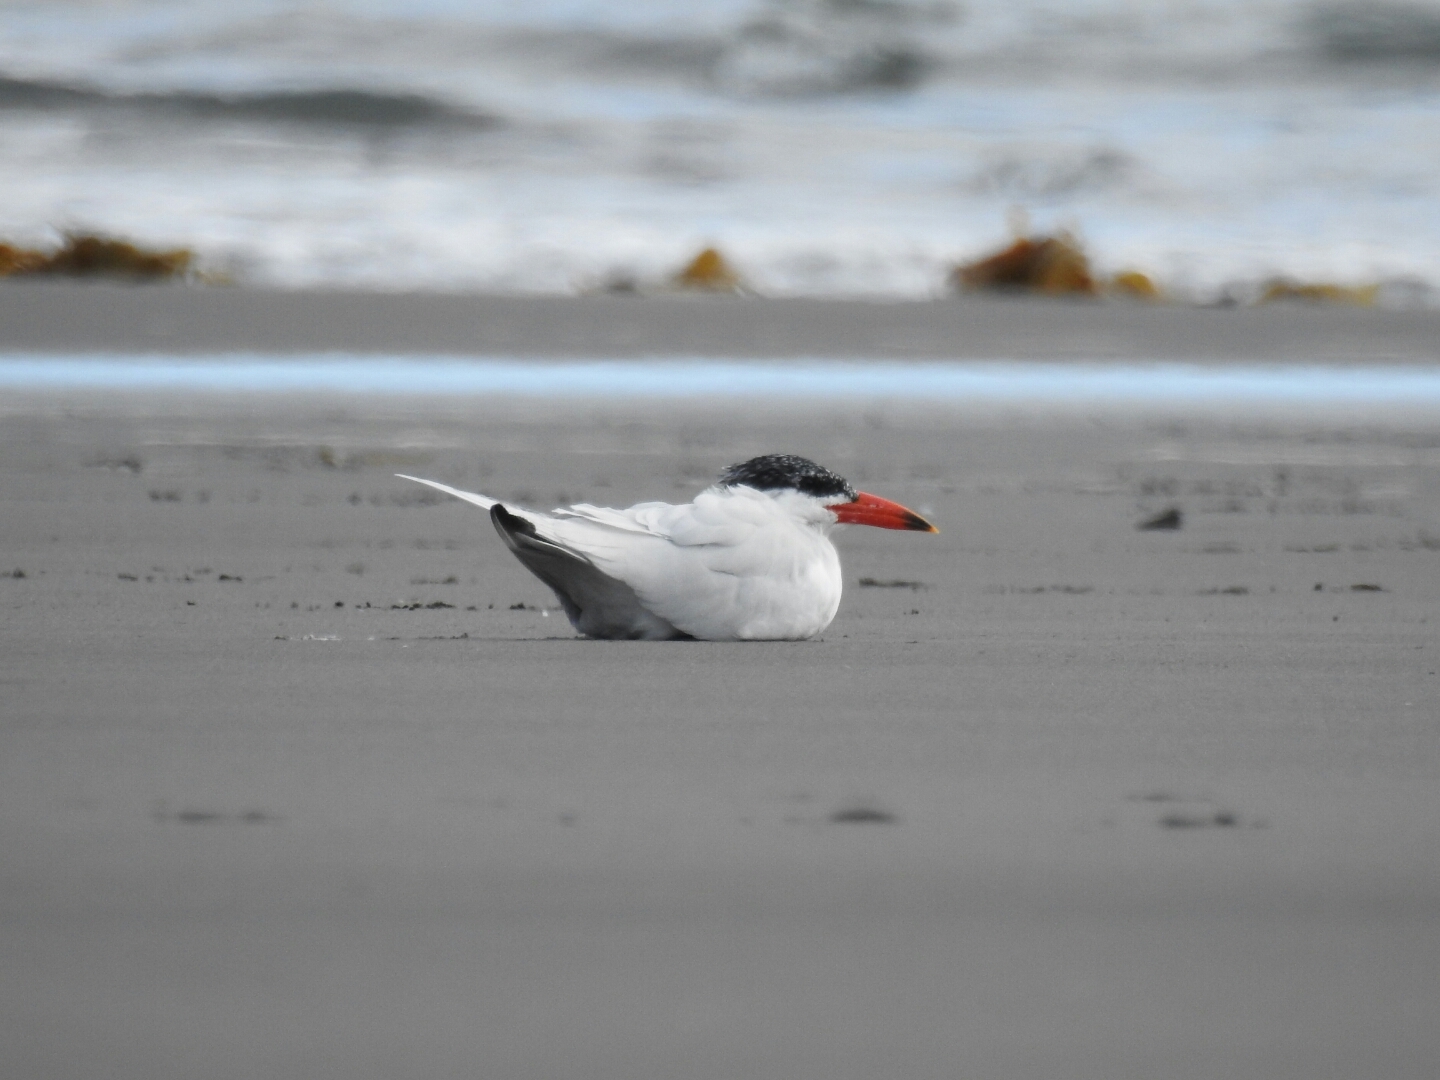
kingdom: Animalia
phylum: Chordata
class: Aves
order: Charadriiformes
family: Laridae
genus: Hydroprogne
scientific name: Hydroprogne caspia
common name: Caspian tern
